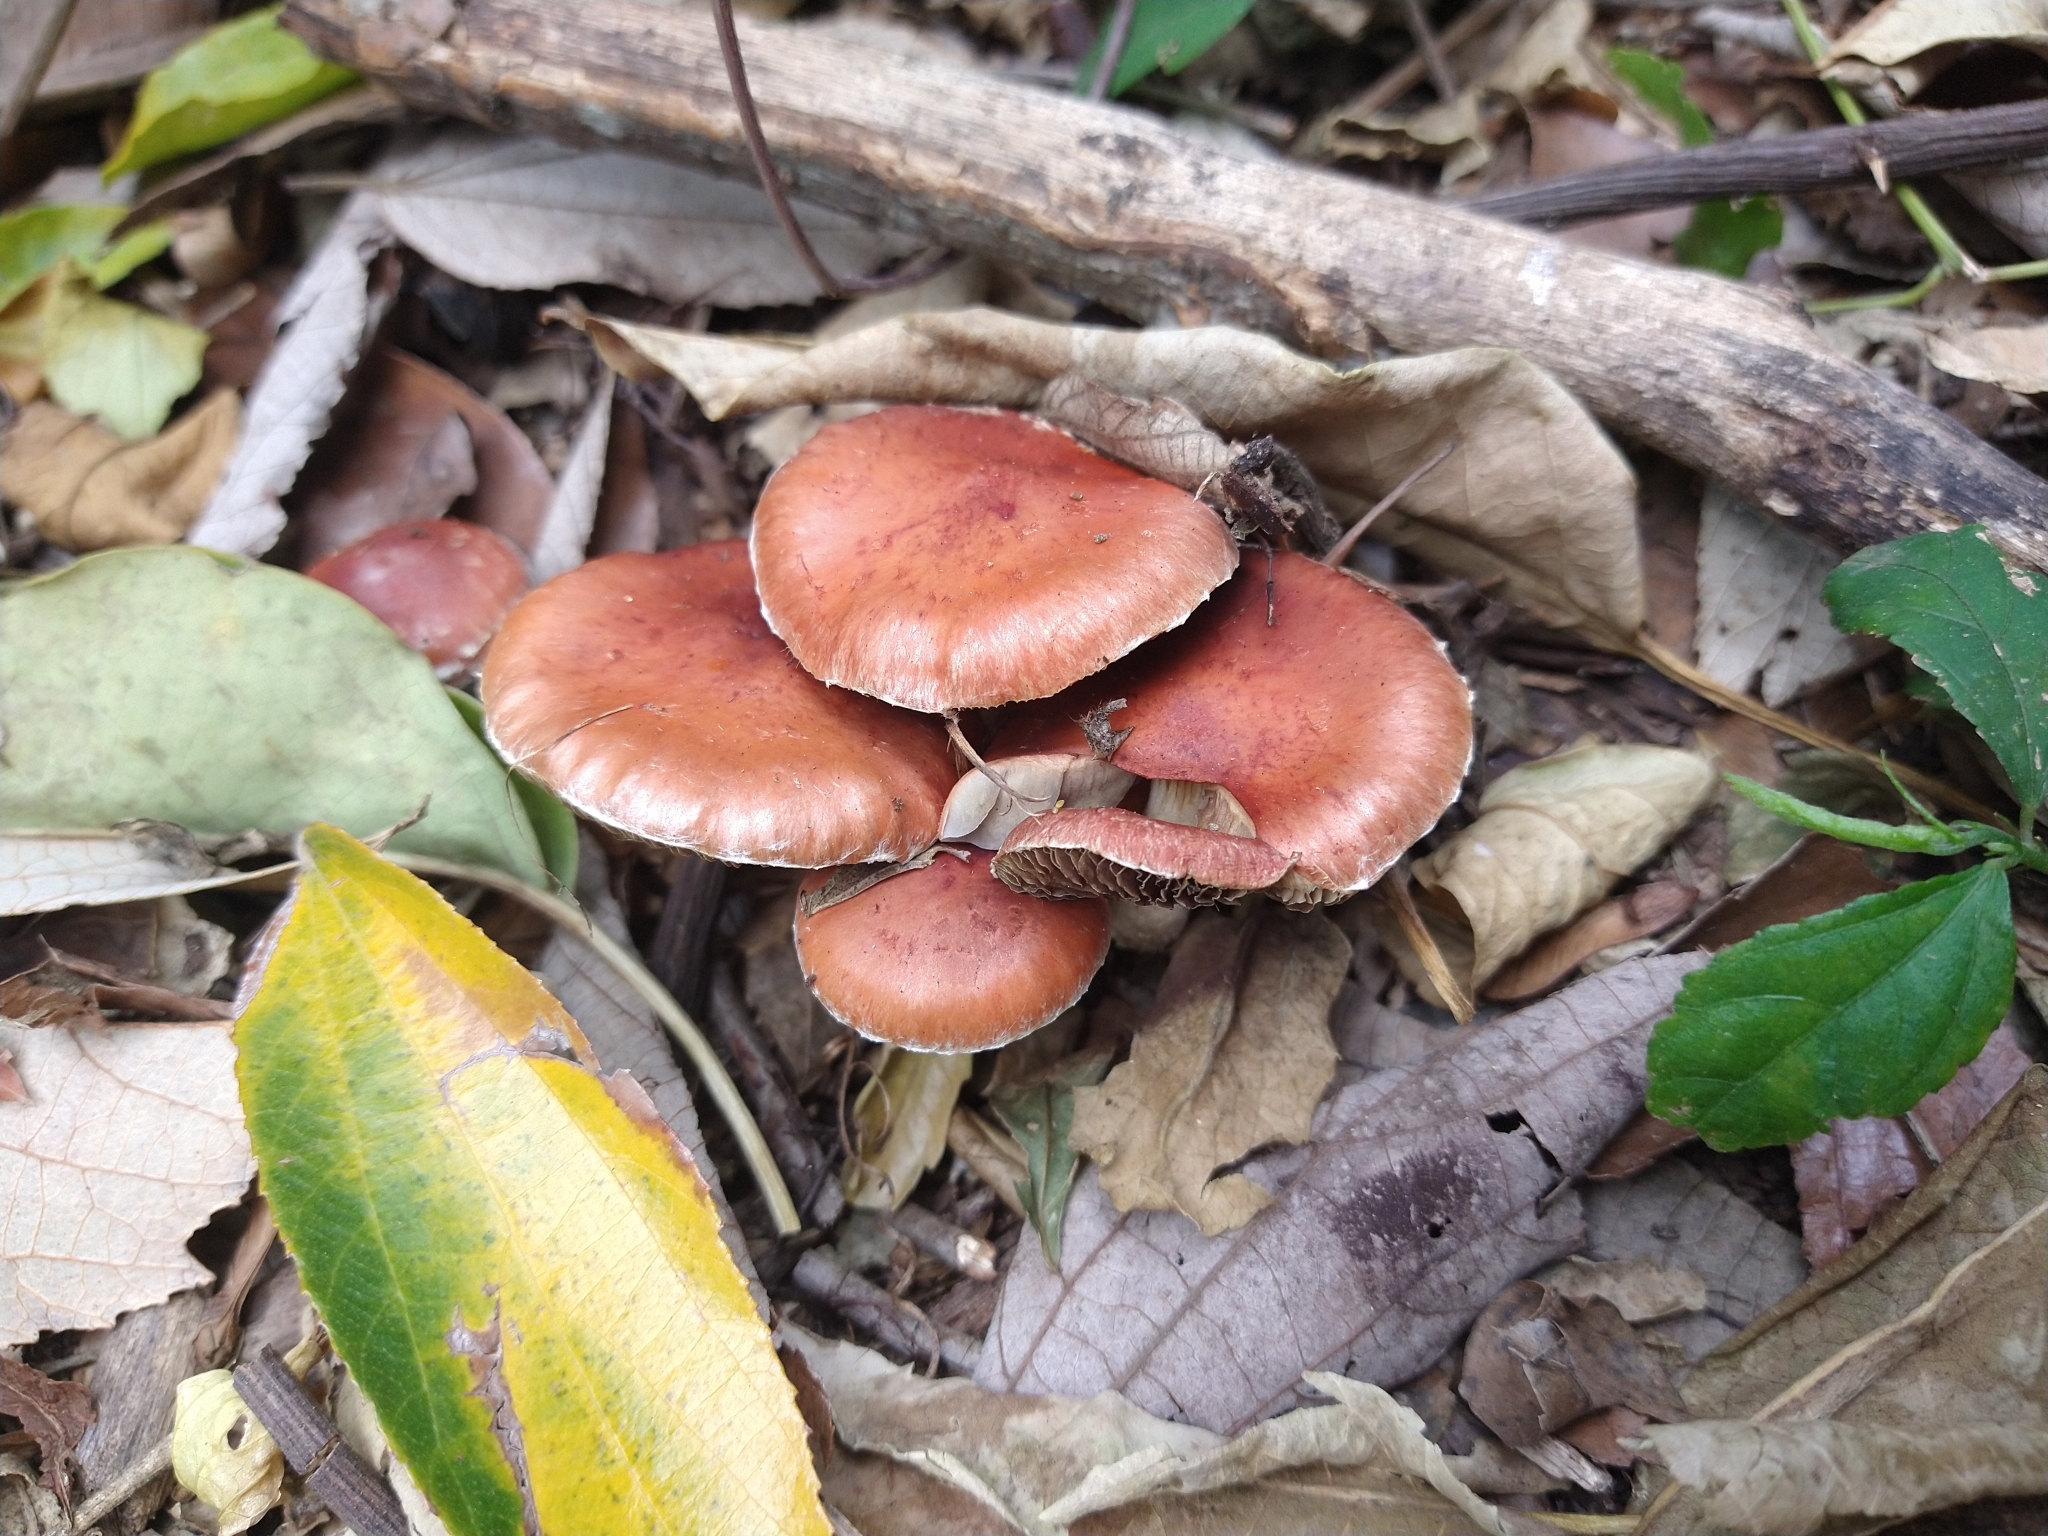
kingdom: Fungi
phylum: Basidiomycota
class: Agaricomycetes
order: Agaricales
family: Strophariaceae
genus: Leratiomyces
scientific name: Leratiomyces ceres
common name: Redlead roundhead
